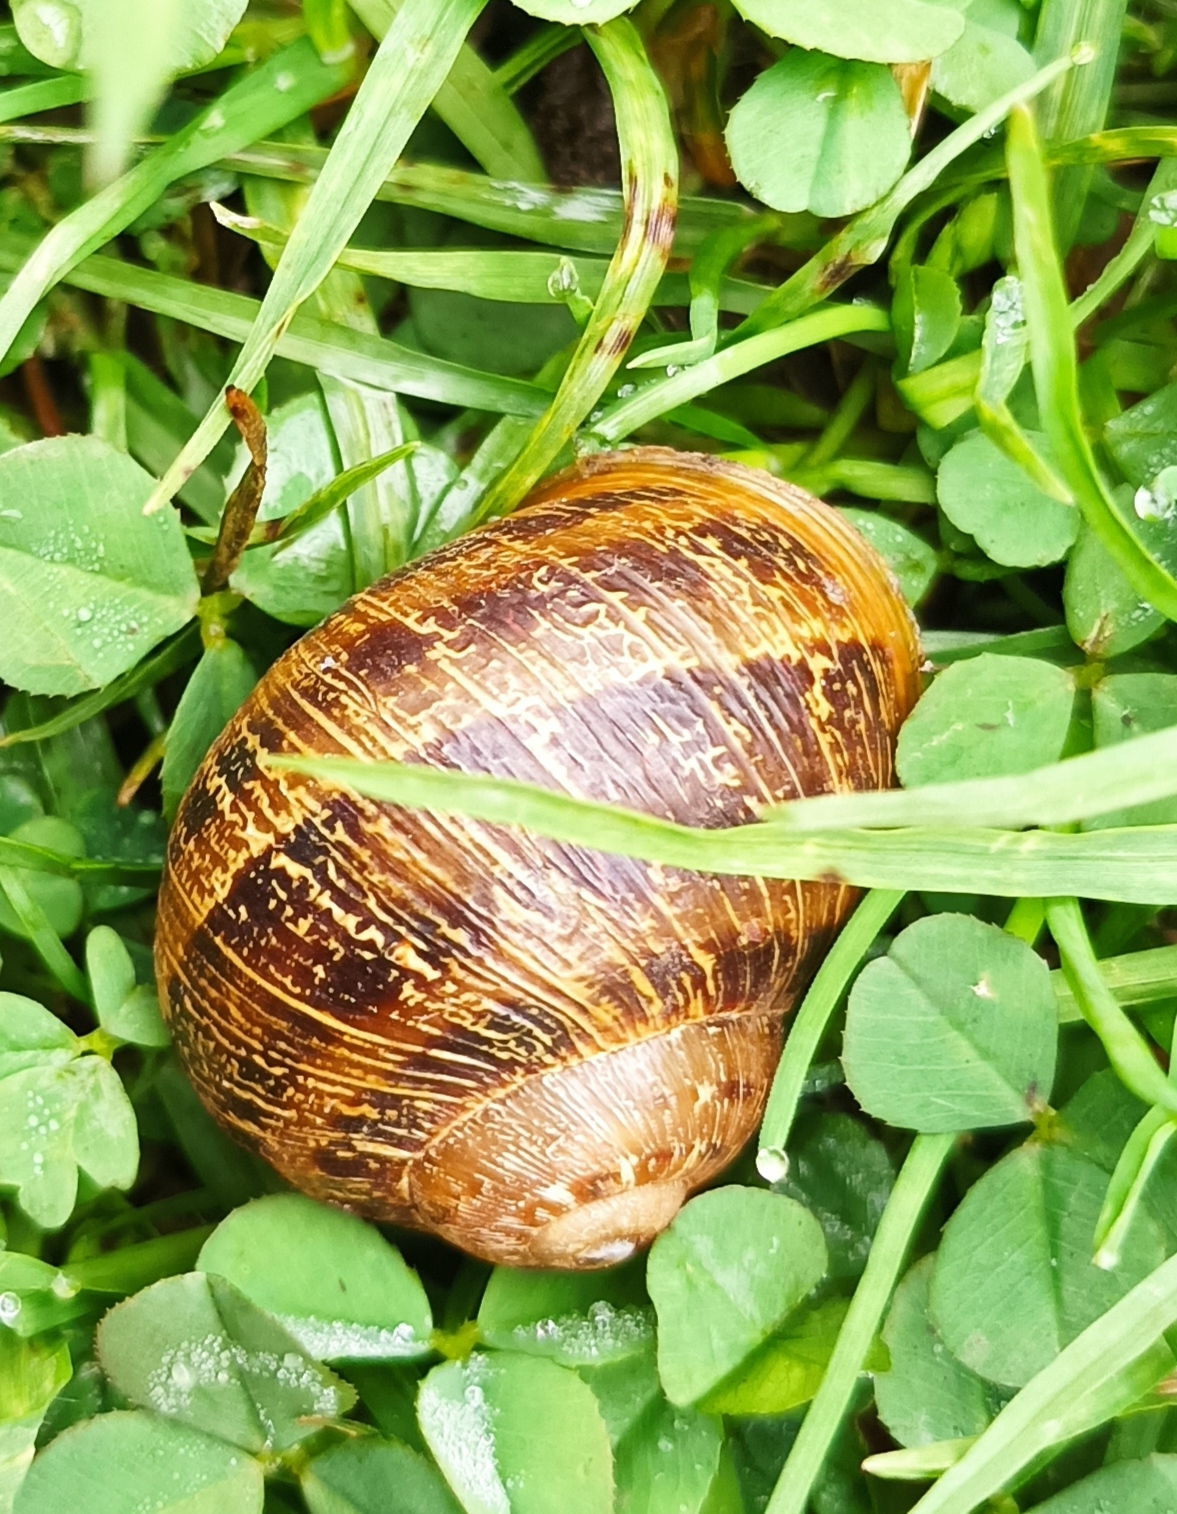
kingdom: Animalia
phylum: Mollusca
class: Gastropoda
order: Stylommatophora
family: Helicidae
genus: Cornu
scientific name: Cornu aspersum
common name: Brown garden snail
